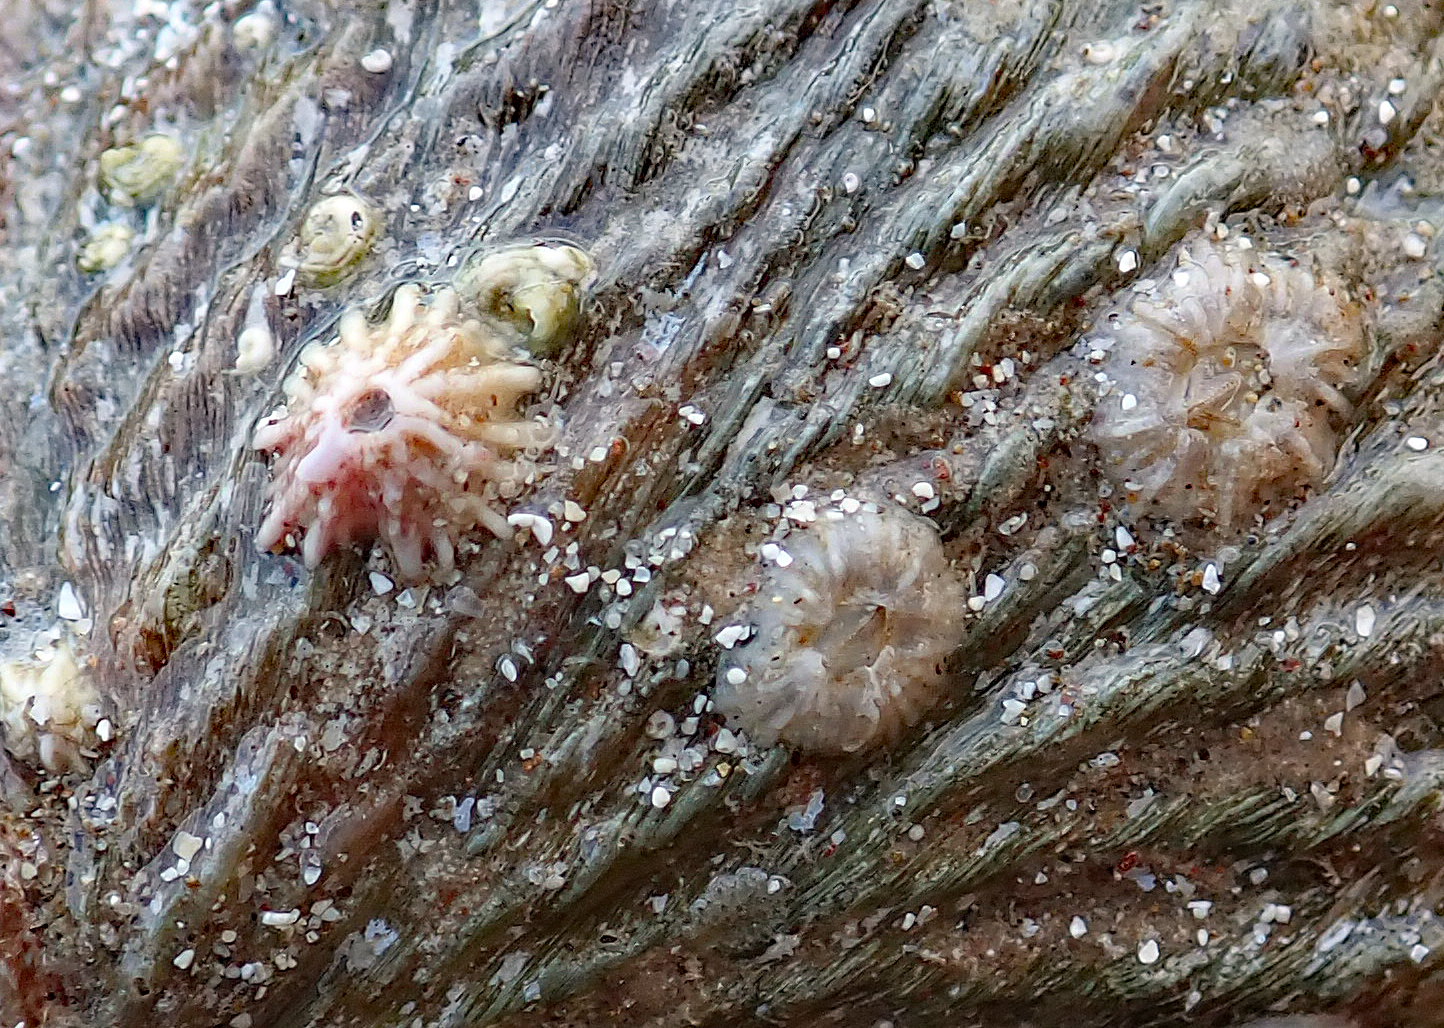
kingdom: Animalia
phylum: Arthropoda
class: Maxillopoda
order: Sessilia
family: Balanidae
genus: Notobalanus
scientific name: Notobalanus vestitus
